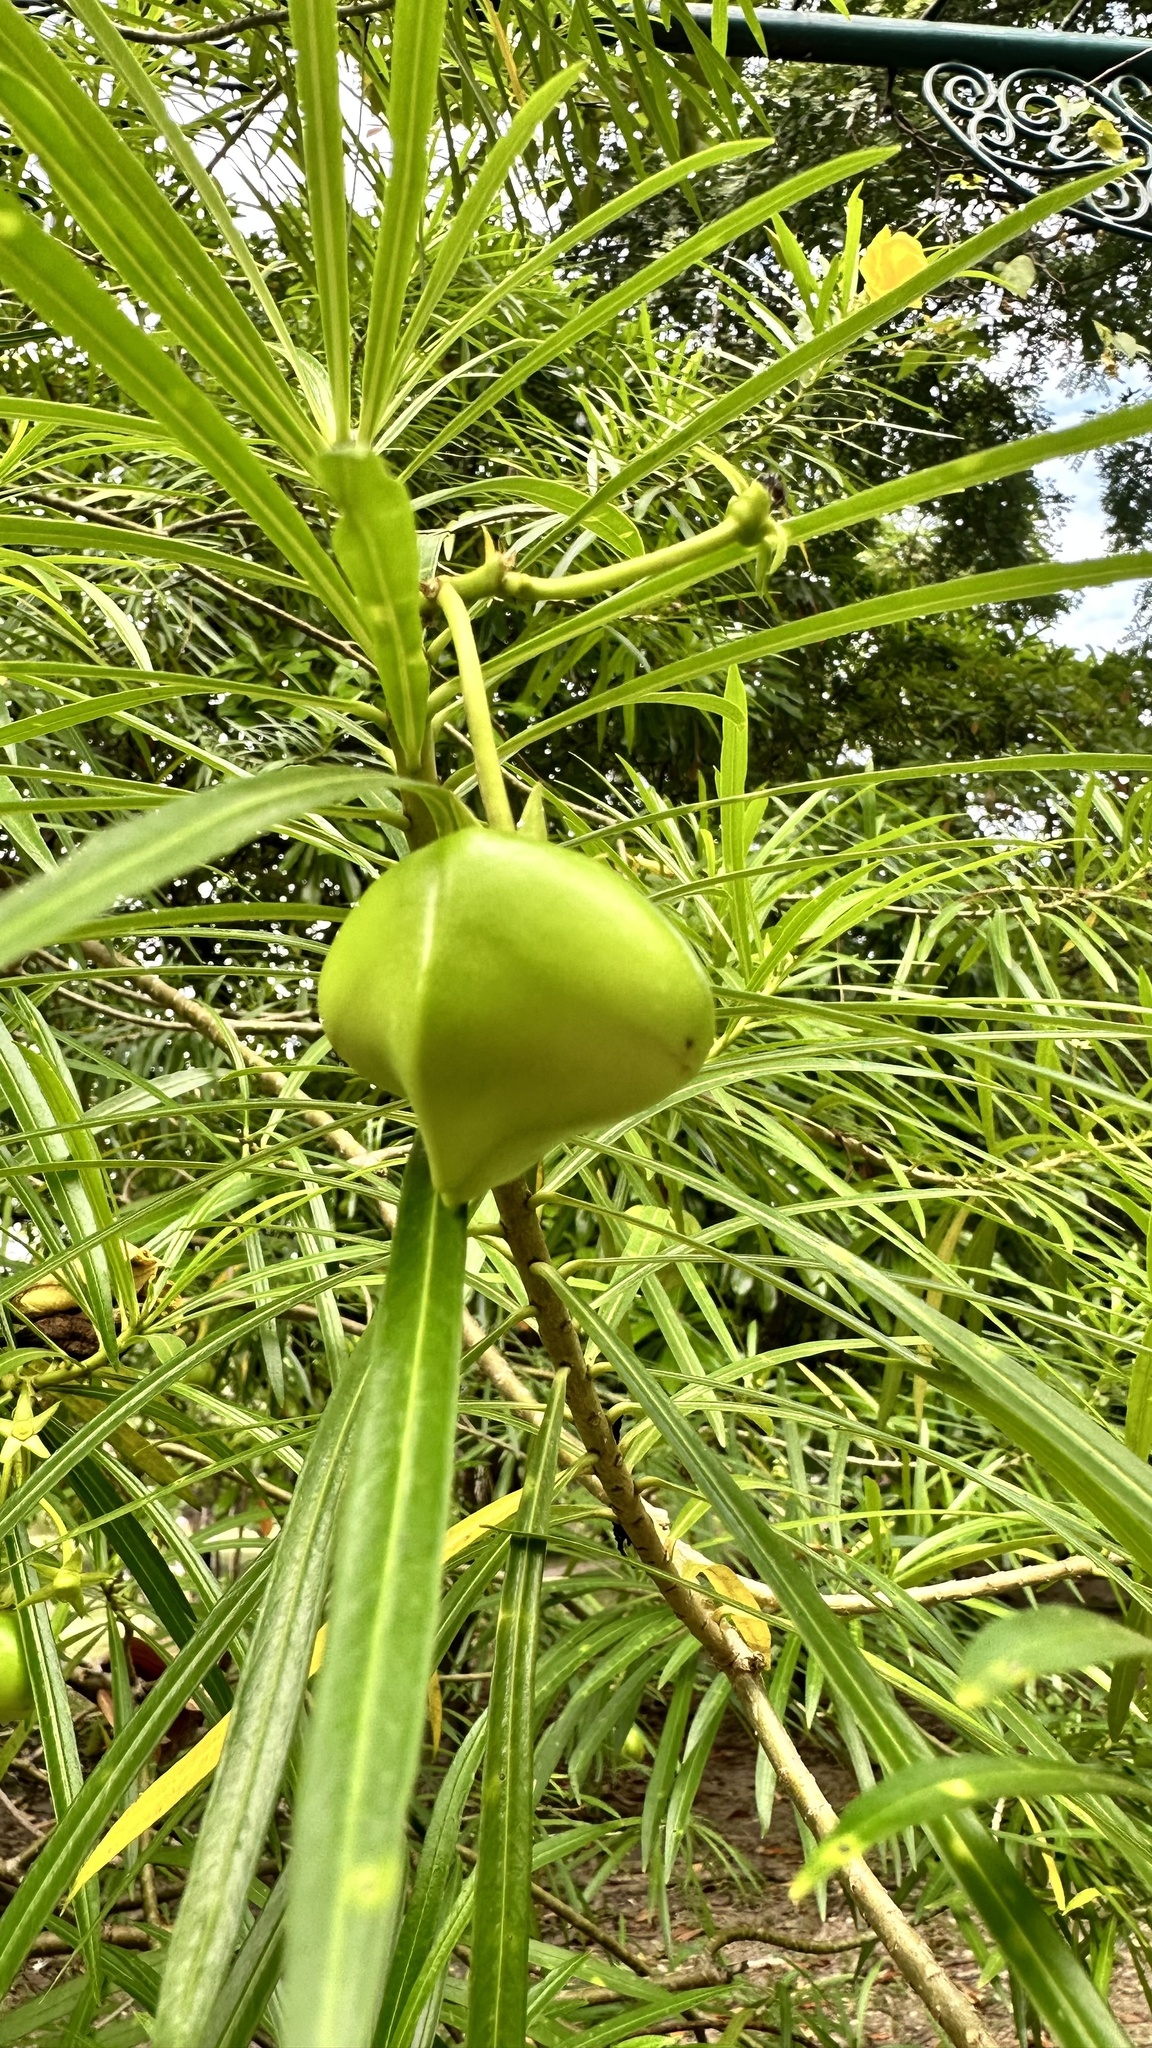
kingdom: Plantae
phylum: Tracheophyta
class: Magnoliopsida
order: Gentianales
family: Apocynaceae
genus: Cascabela
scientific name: Cascabela thevetia
